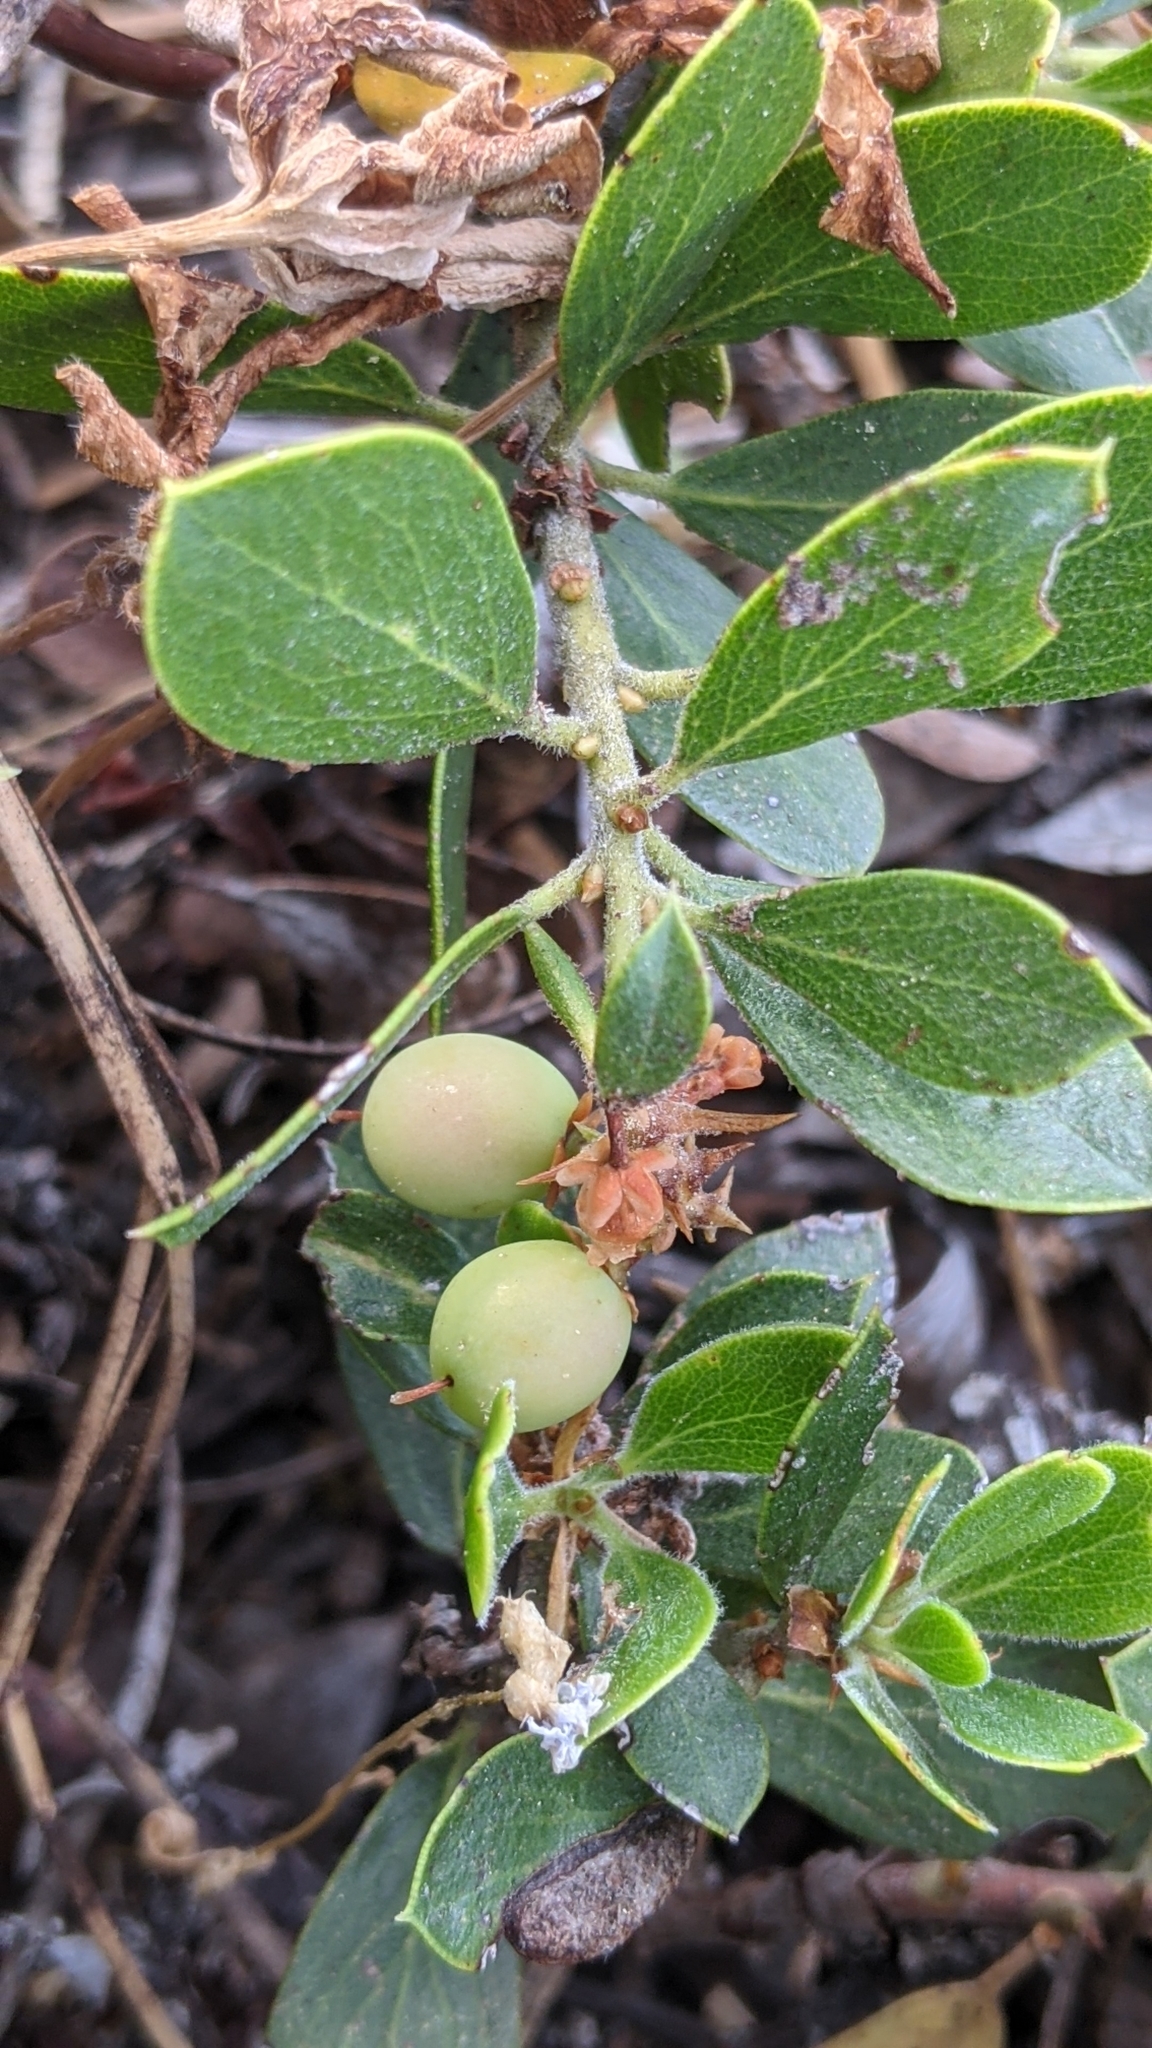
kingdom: Plantae
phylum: Tracheophyta
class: Magnoliopsida
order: Ericales
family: Ericaceae
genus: Arctostaphylos
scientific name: Arctostaphylos nevadensis
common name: Pinemat manzanita
